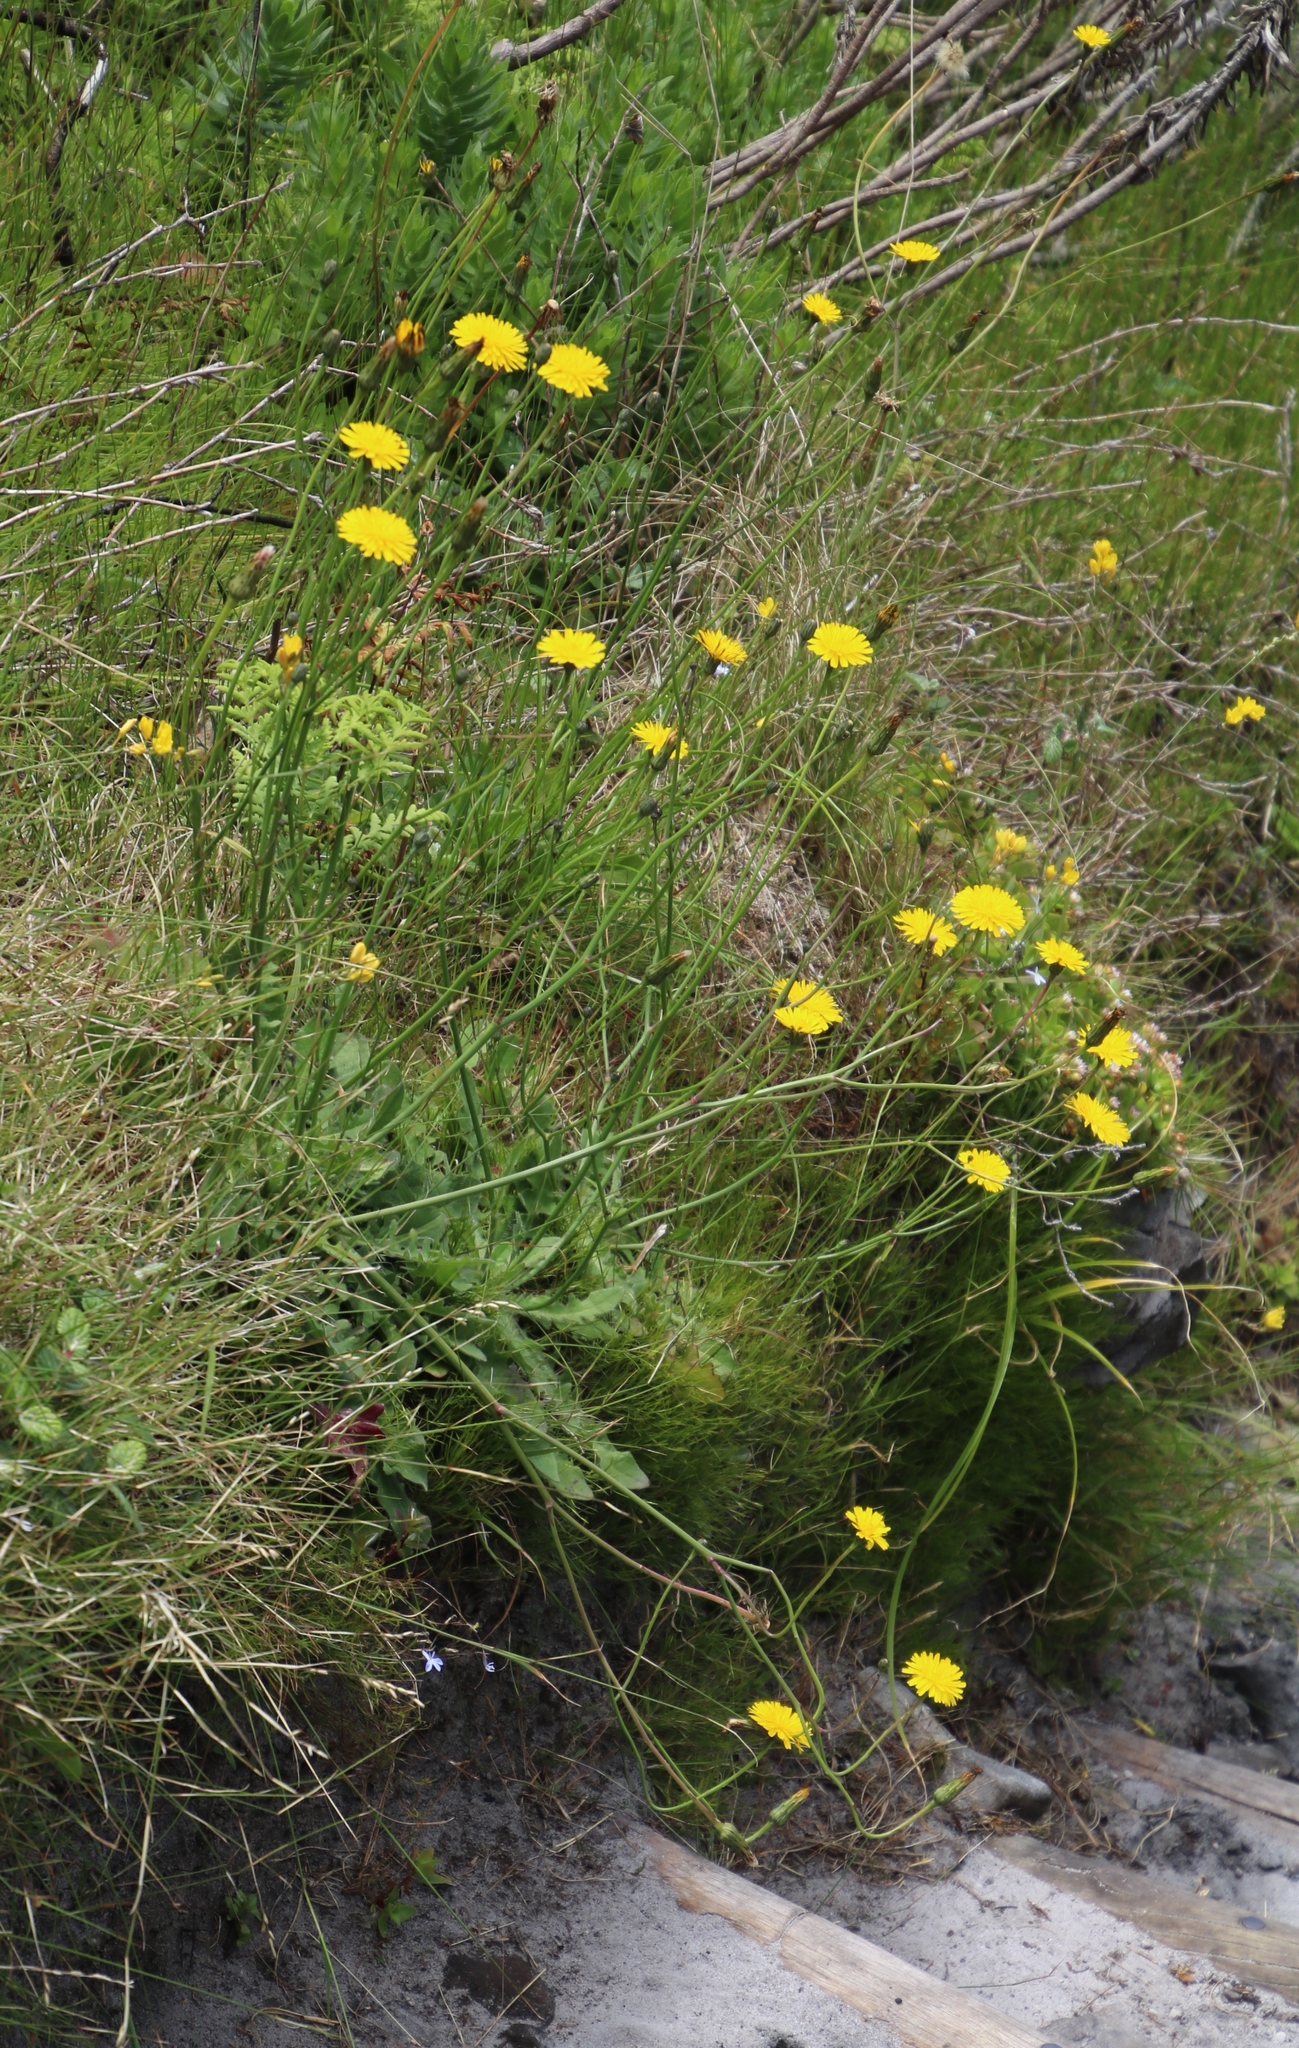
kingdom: Plantae
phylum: Tracheophyta
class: Magnoliopsida
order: Asterales
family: Asteraceae
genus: Hypochaeris
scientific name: Hypochaeris radicata
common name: Flatweed
